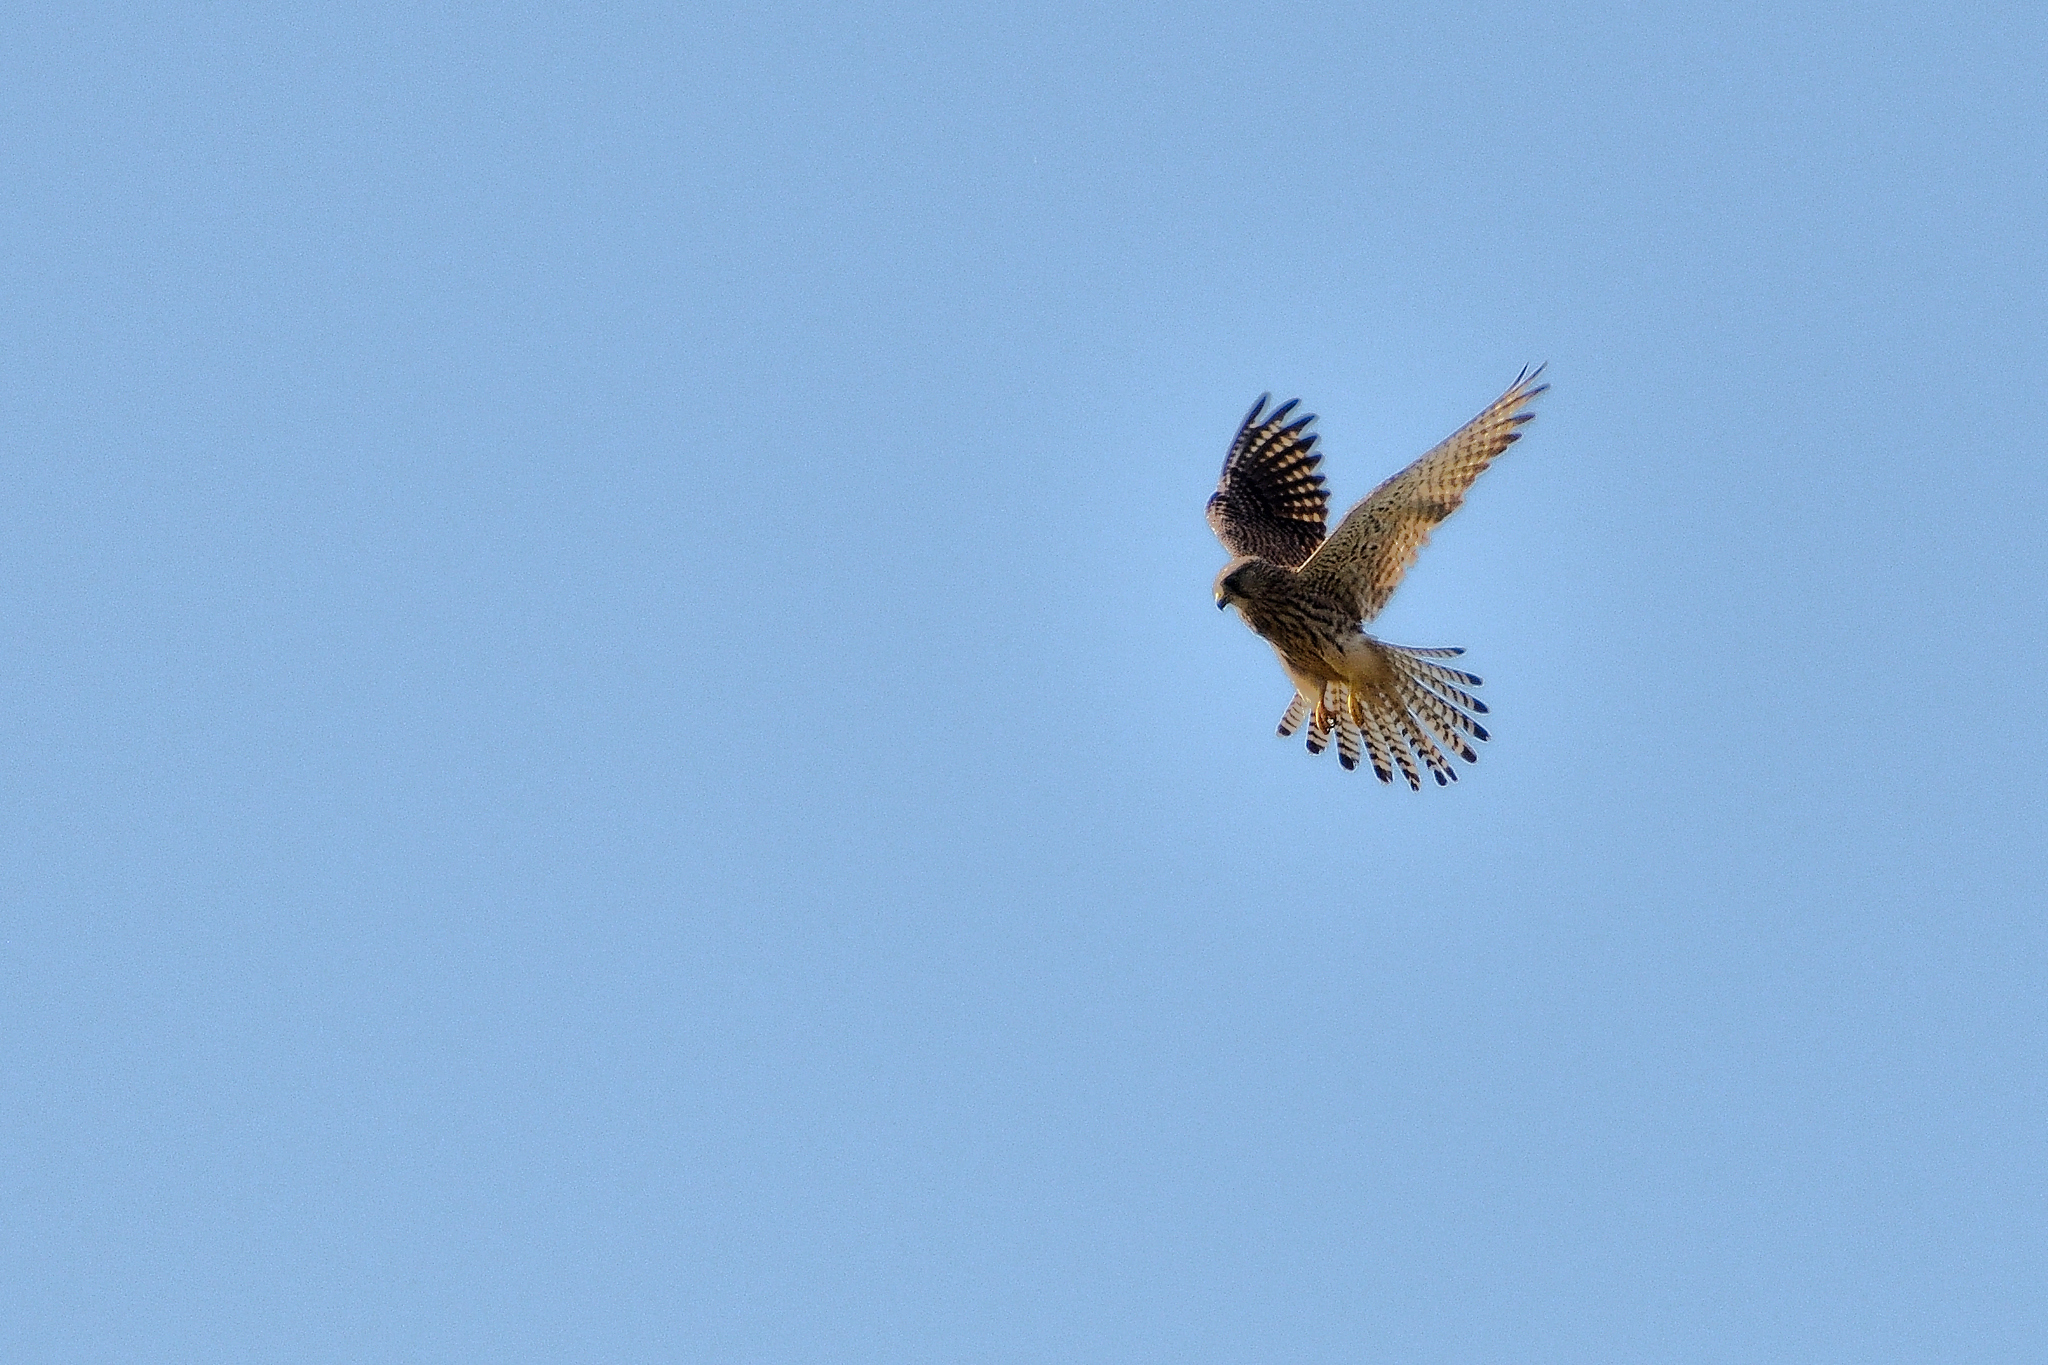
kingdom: Animalia
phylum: Chordata
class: Aves
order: Falconiformes
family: Falconidae
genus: Falco
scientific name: Falco tinnunculus
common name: Common kestrel
